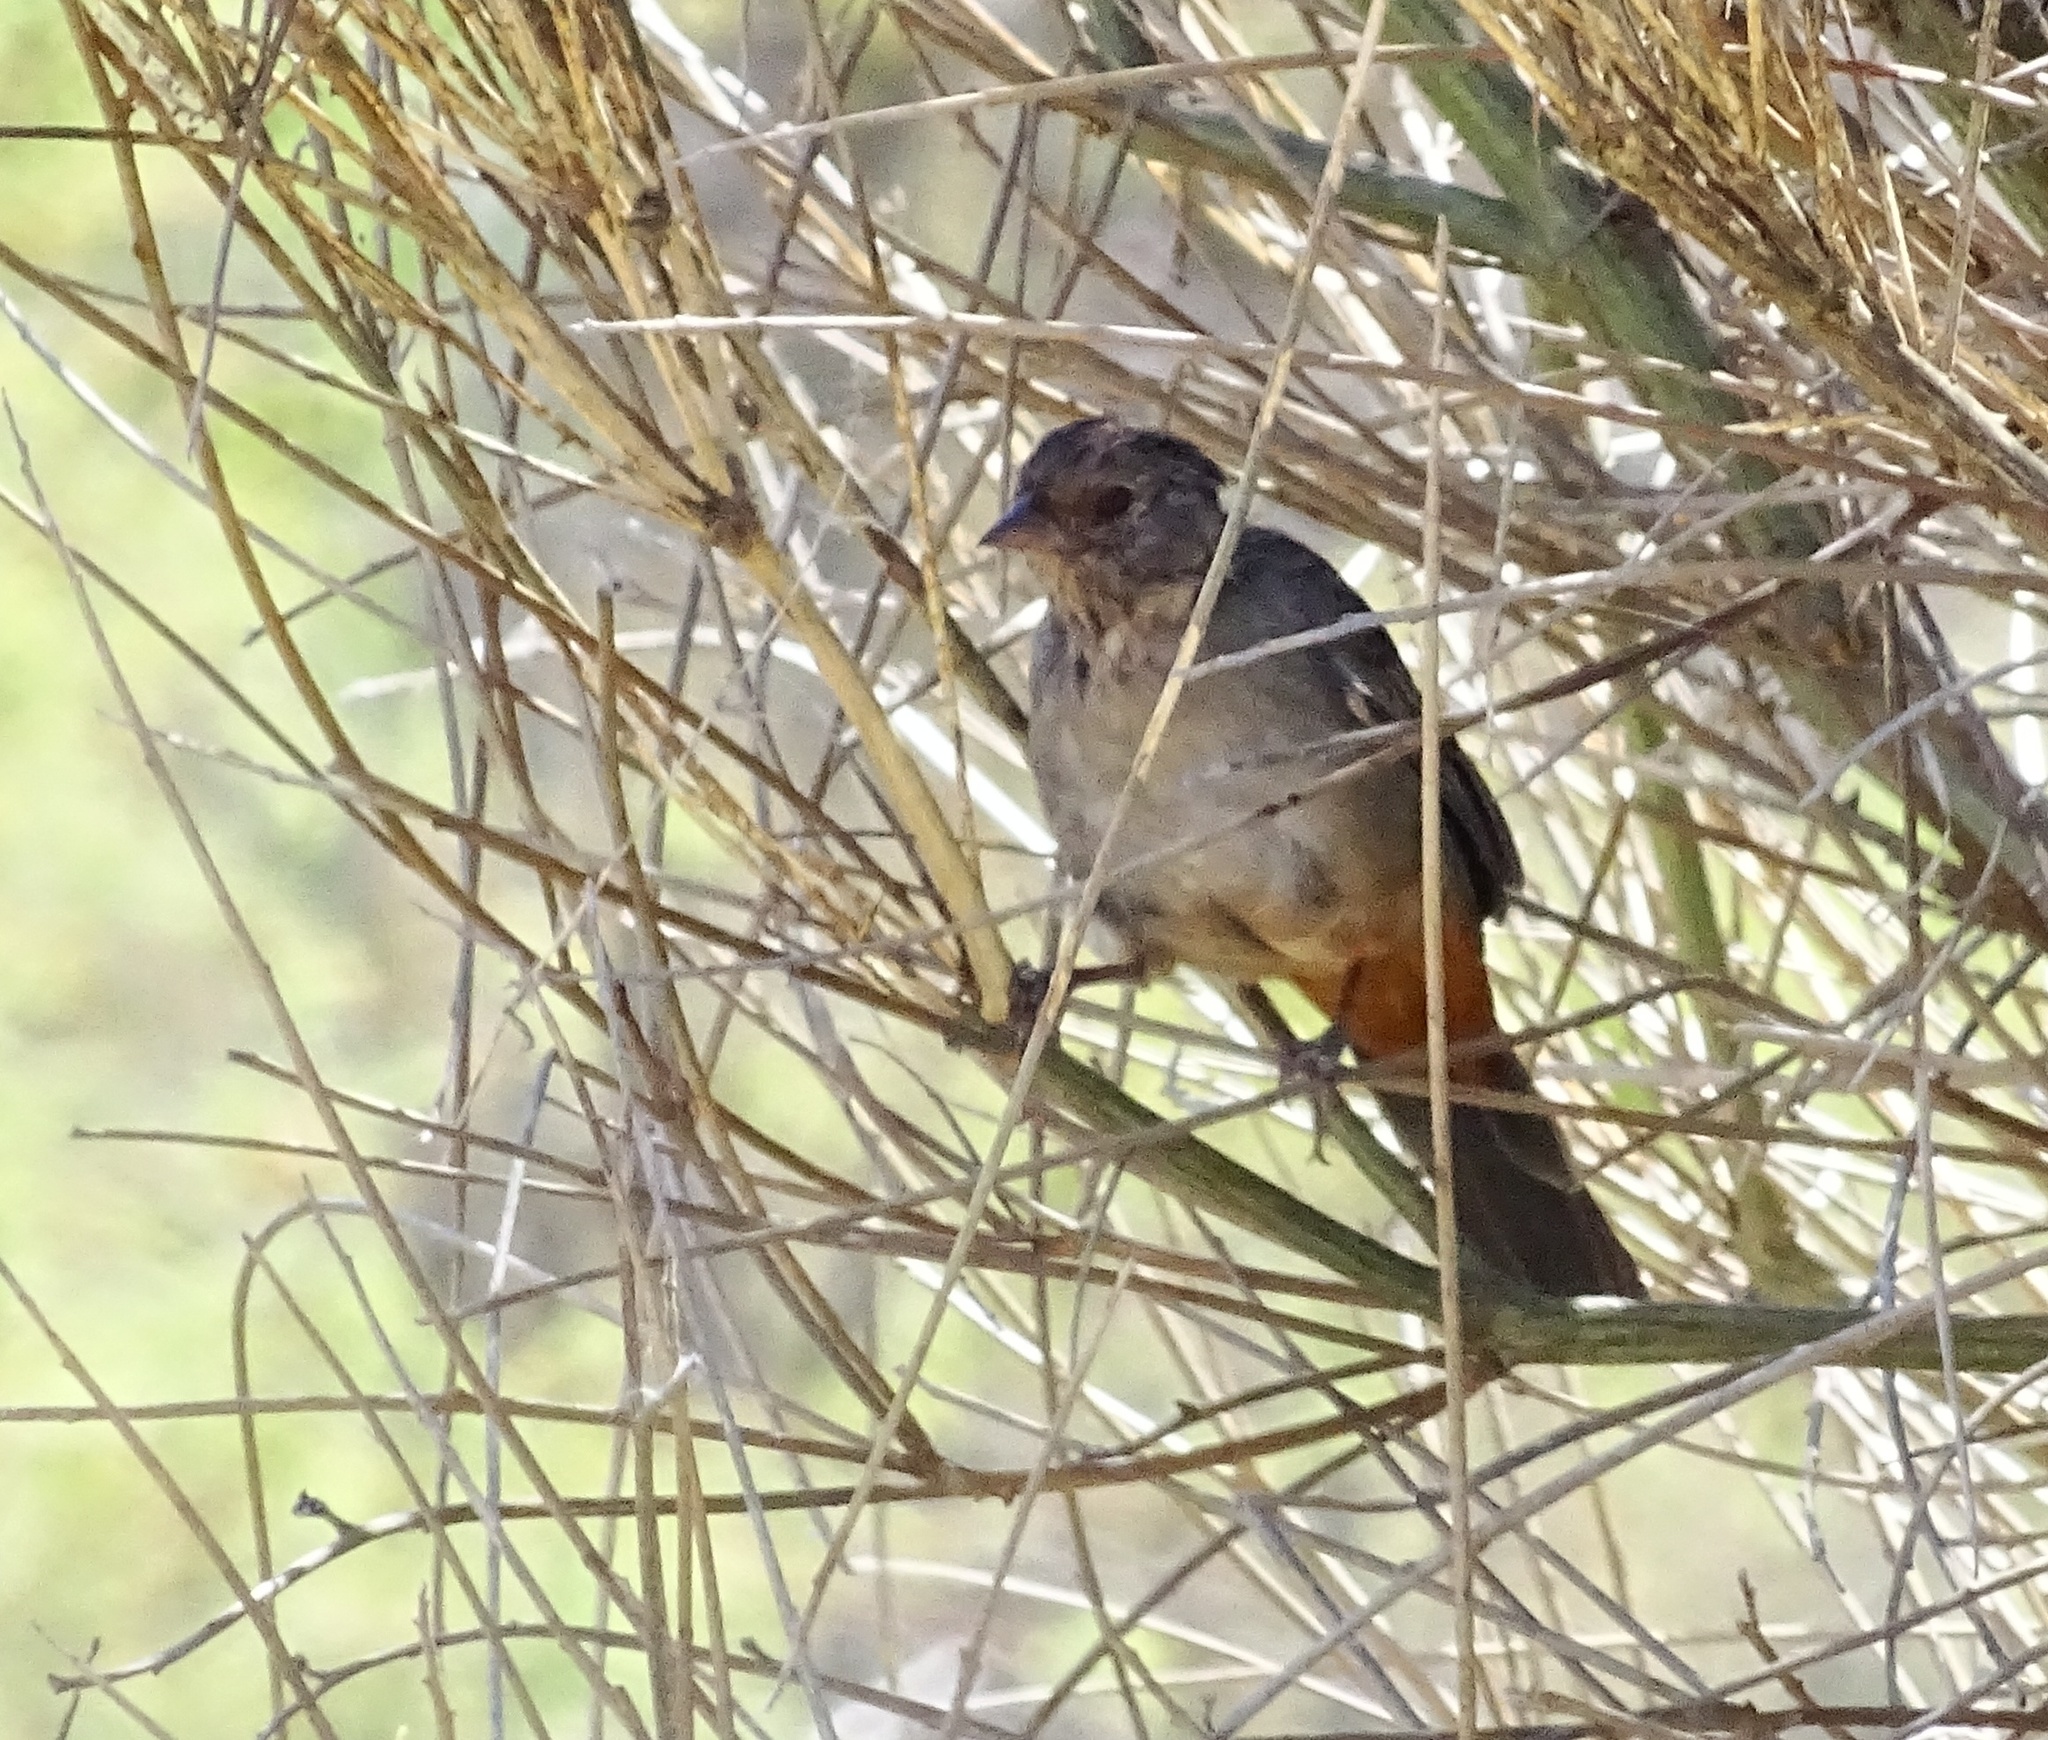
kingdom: Animalia
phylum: Chordata
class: Aves
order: Passeriformes
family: Passerellidae
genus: Melozone
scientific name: Melozone crissalis
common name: California towhee
